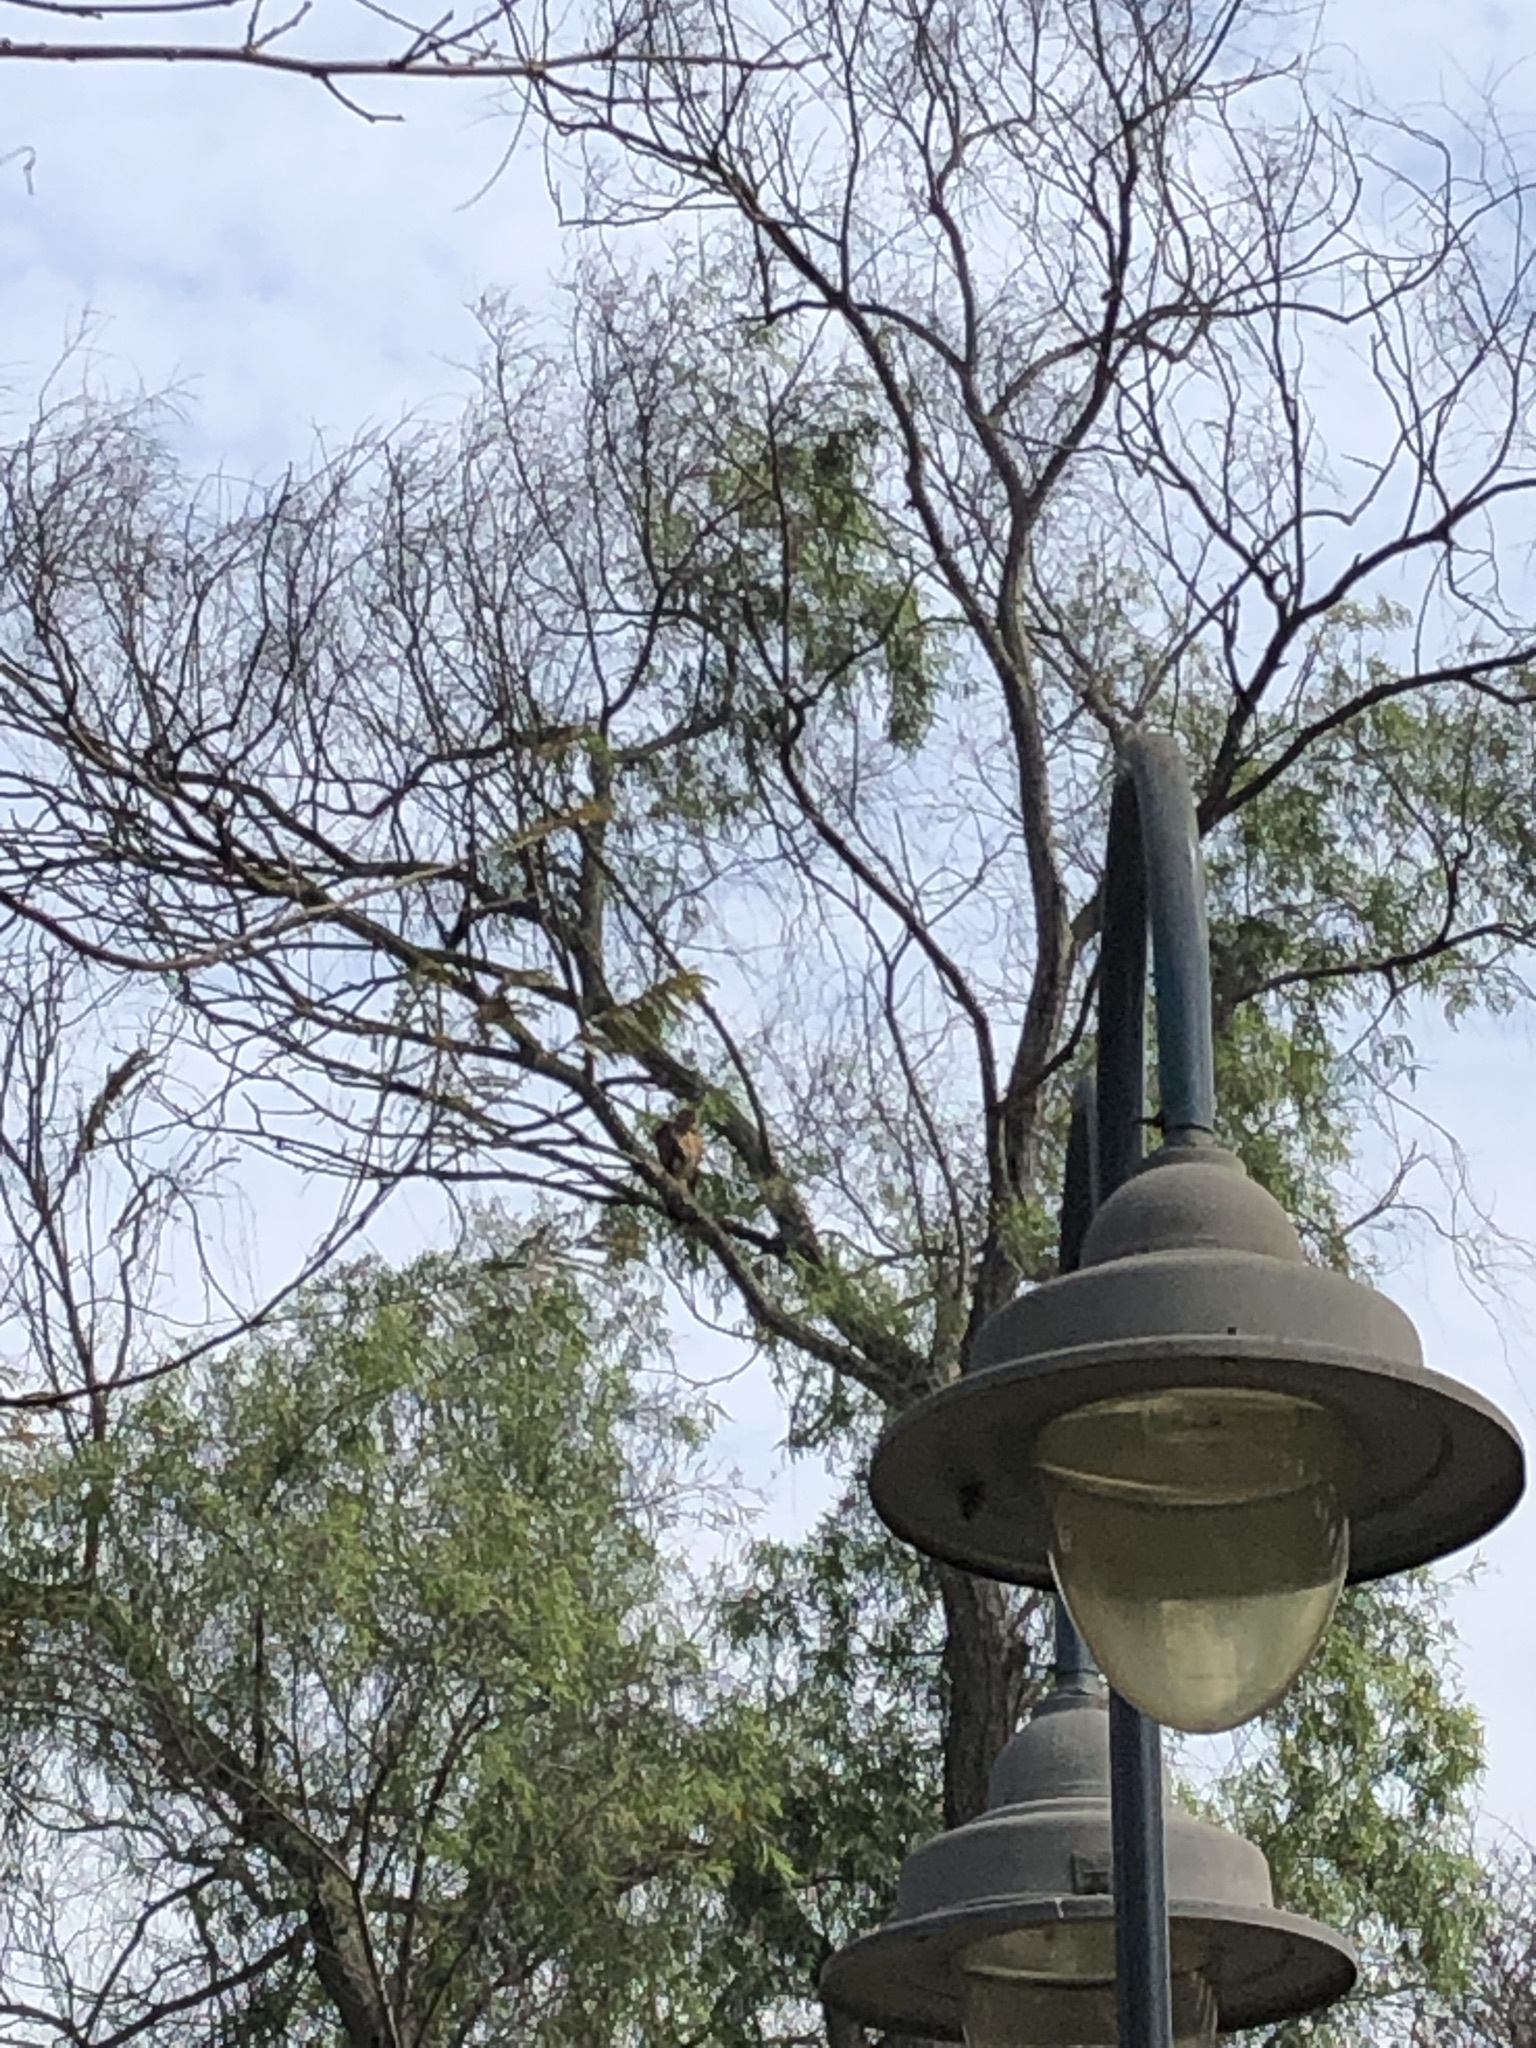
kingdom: Animalia
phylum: Chordata
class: Aves
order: Accipitriformes
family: Accipitridae
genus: Parabuteo
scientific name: Parabuteo unicinctus
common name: Harris's hawk
